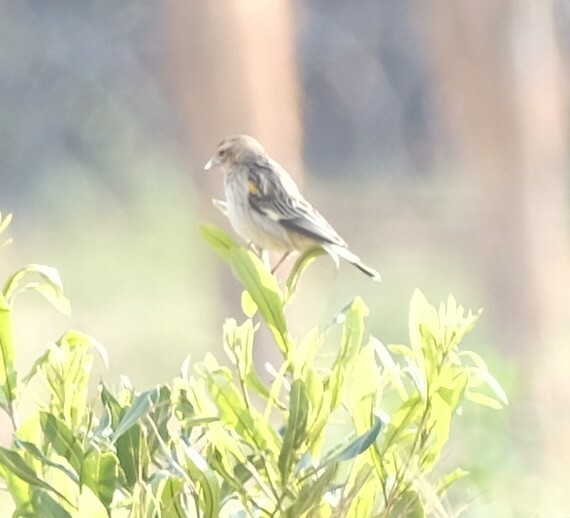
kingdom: Animalia
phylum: Chordata
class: Aves
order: Passeriformes
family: Ploceidae
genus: Euplectes
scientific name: Euplectes capensis
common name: Yellow bishop
